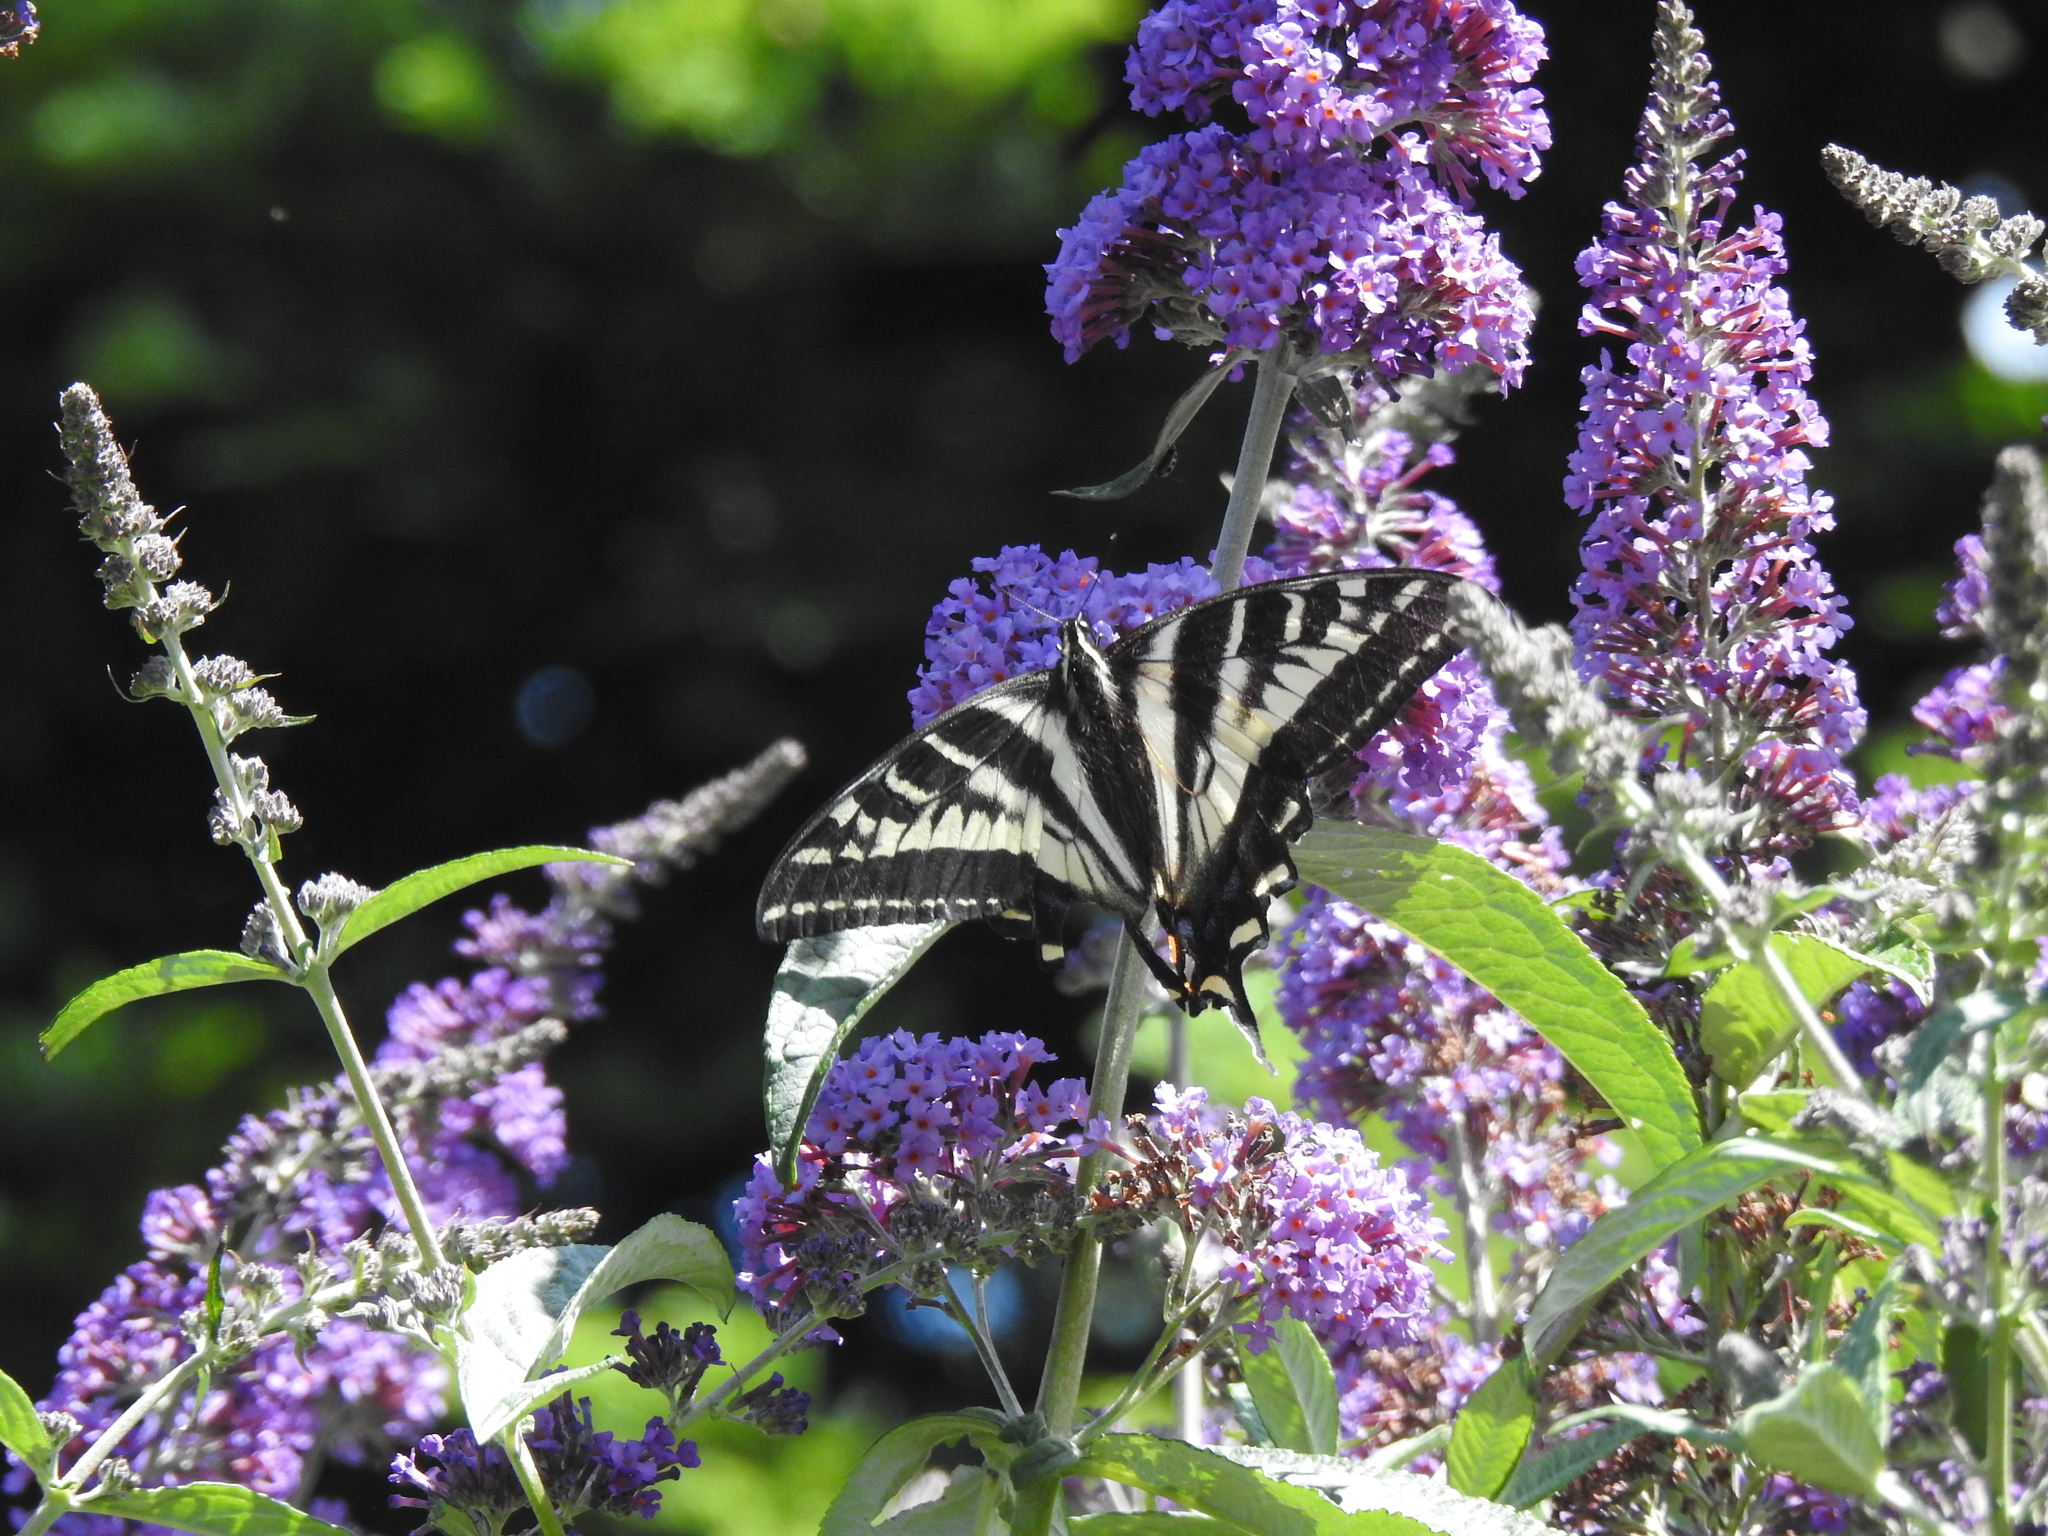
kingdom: Animalia
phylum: Arthropoda
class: Insecta
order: Lepidoptera
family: Papilionidae
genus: Papilio
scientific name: Papilio eurymedon
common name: Pale tiger swallowtail
